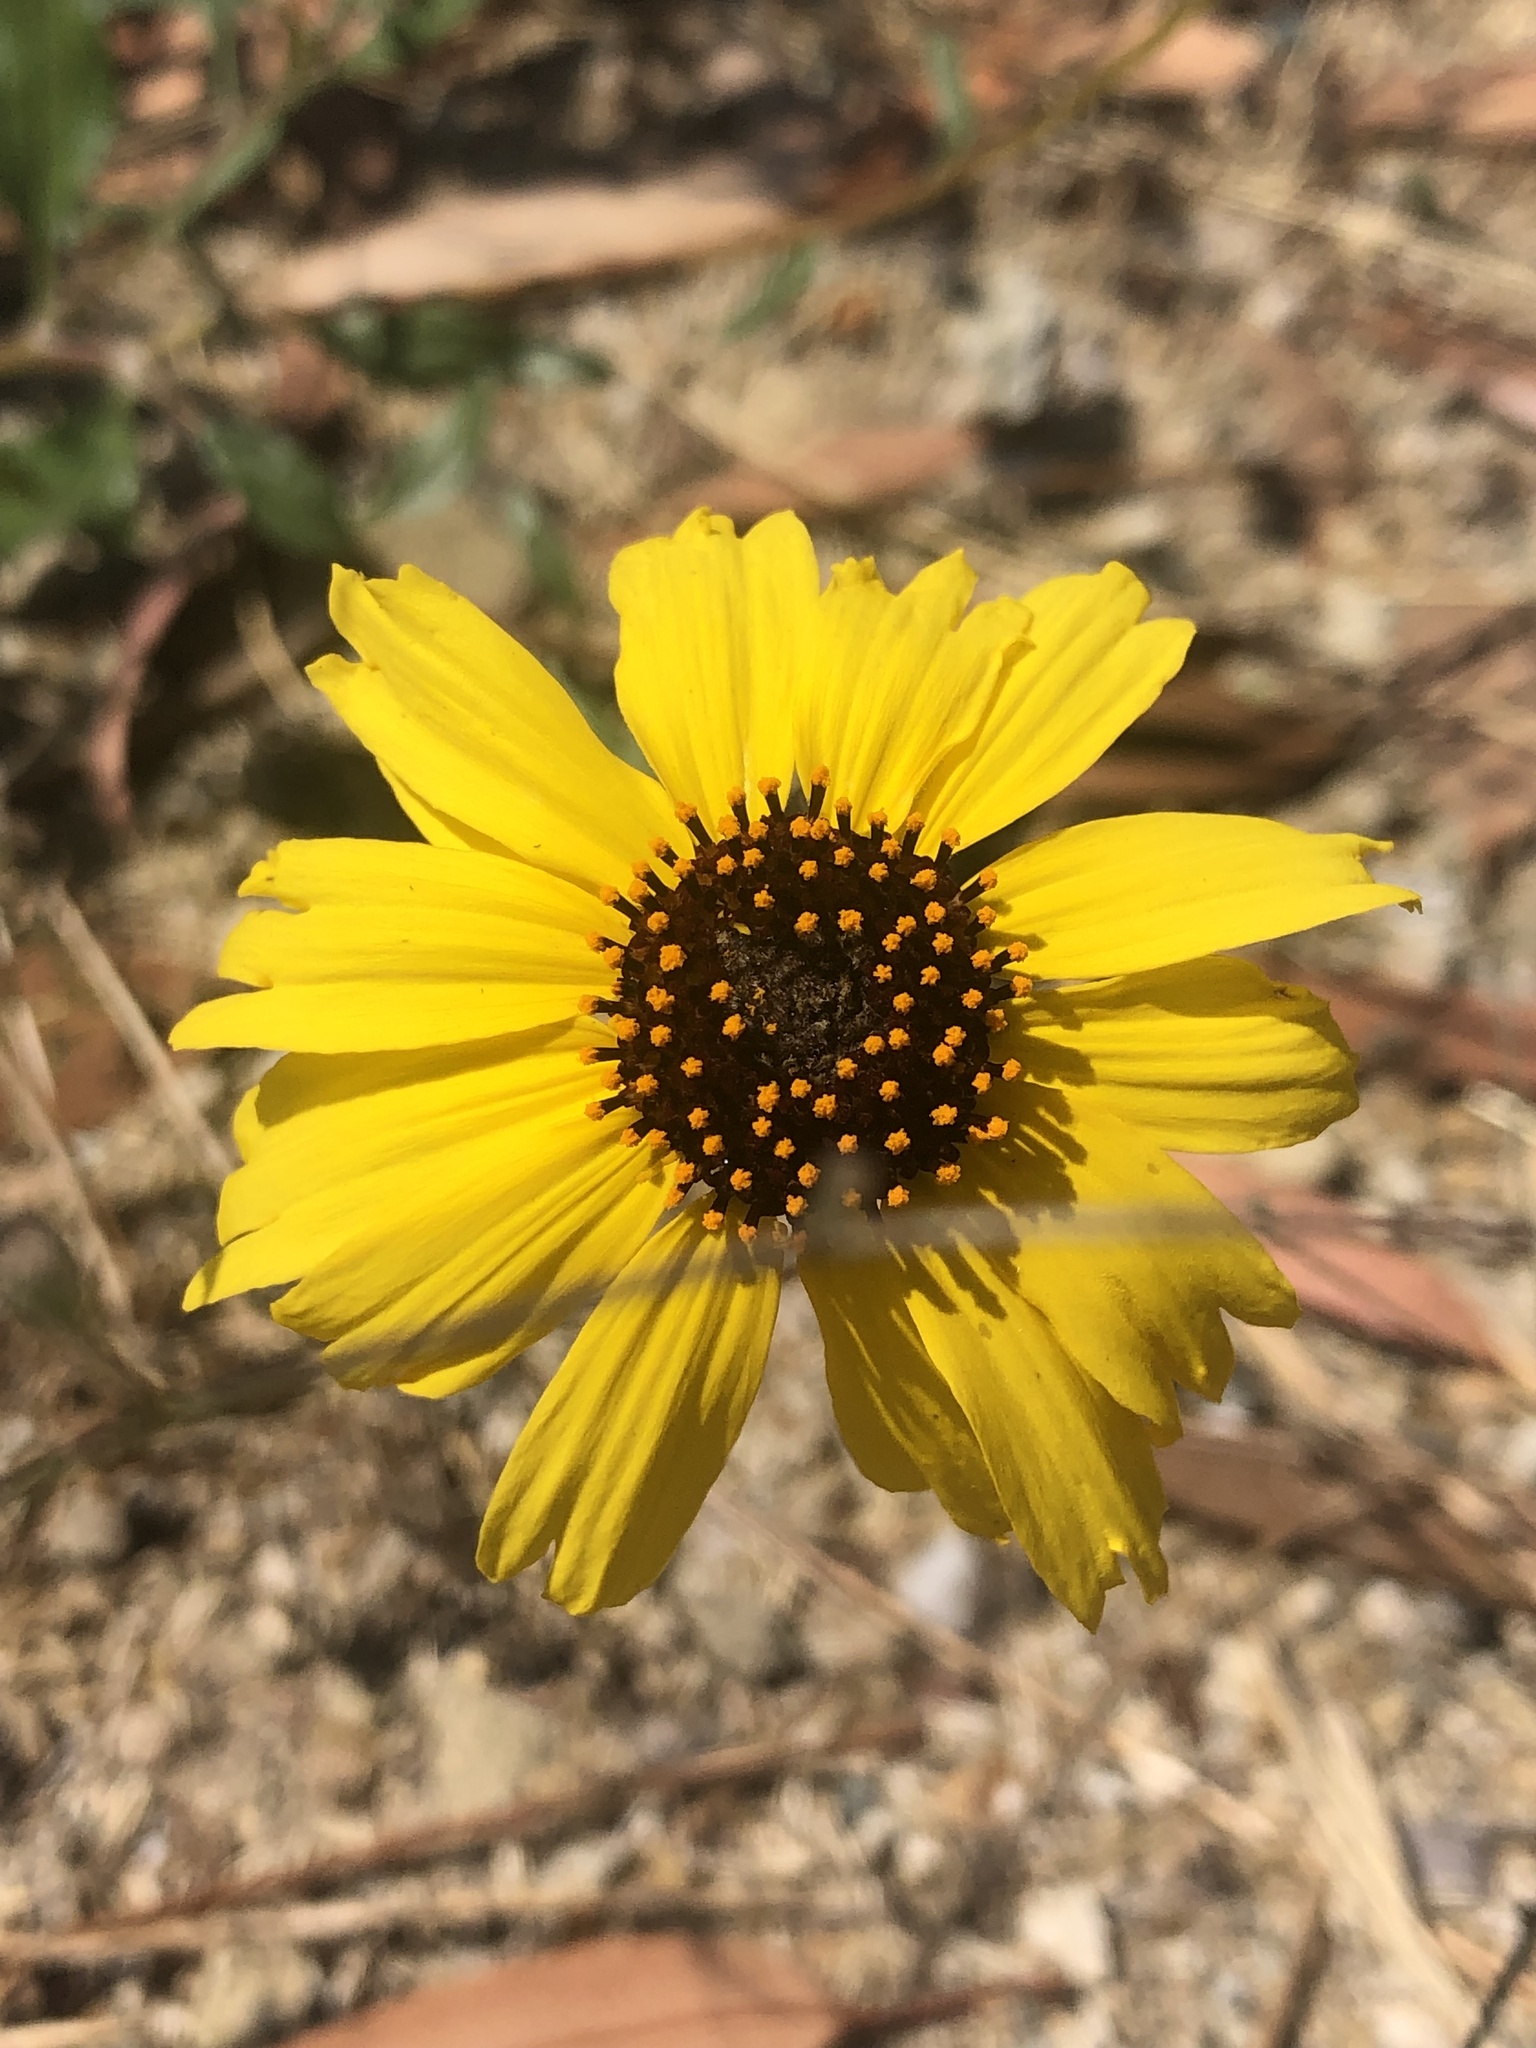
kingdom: Plantae
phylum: Tracheophyta
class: Magnoliopsida
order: Asterales
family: Asteraceae
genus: Encelia
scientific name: Encelia californica
